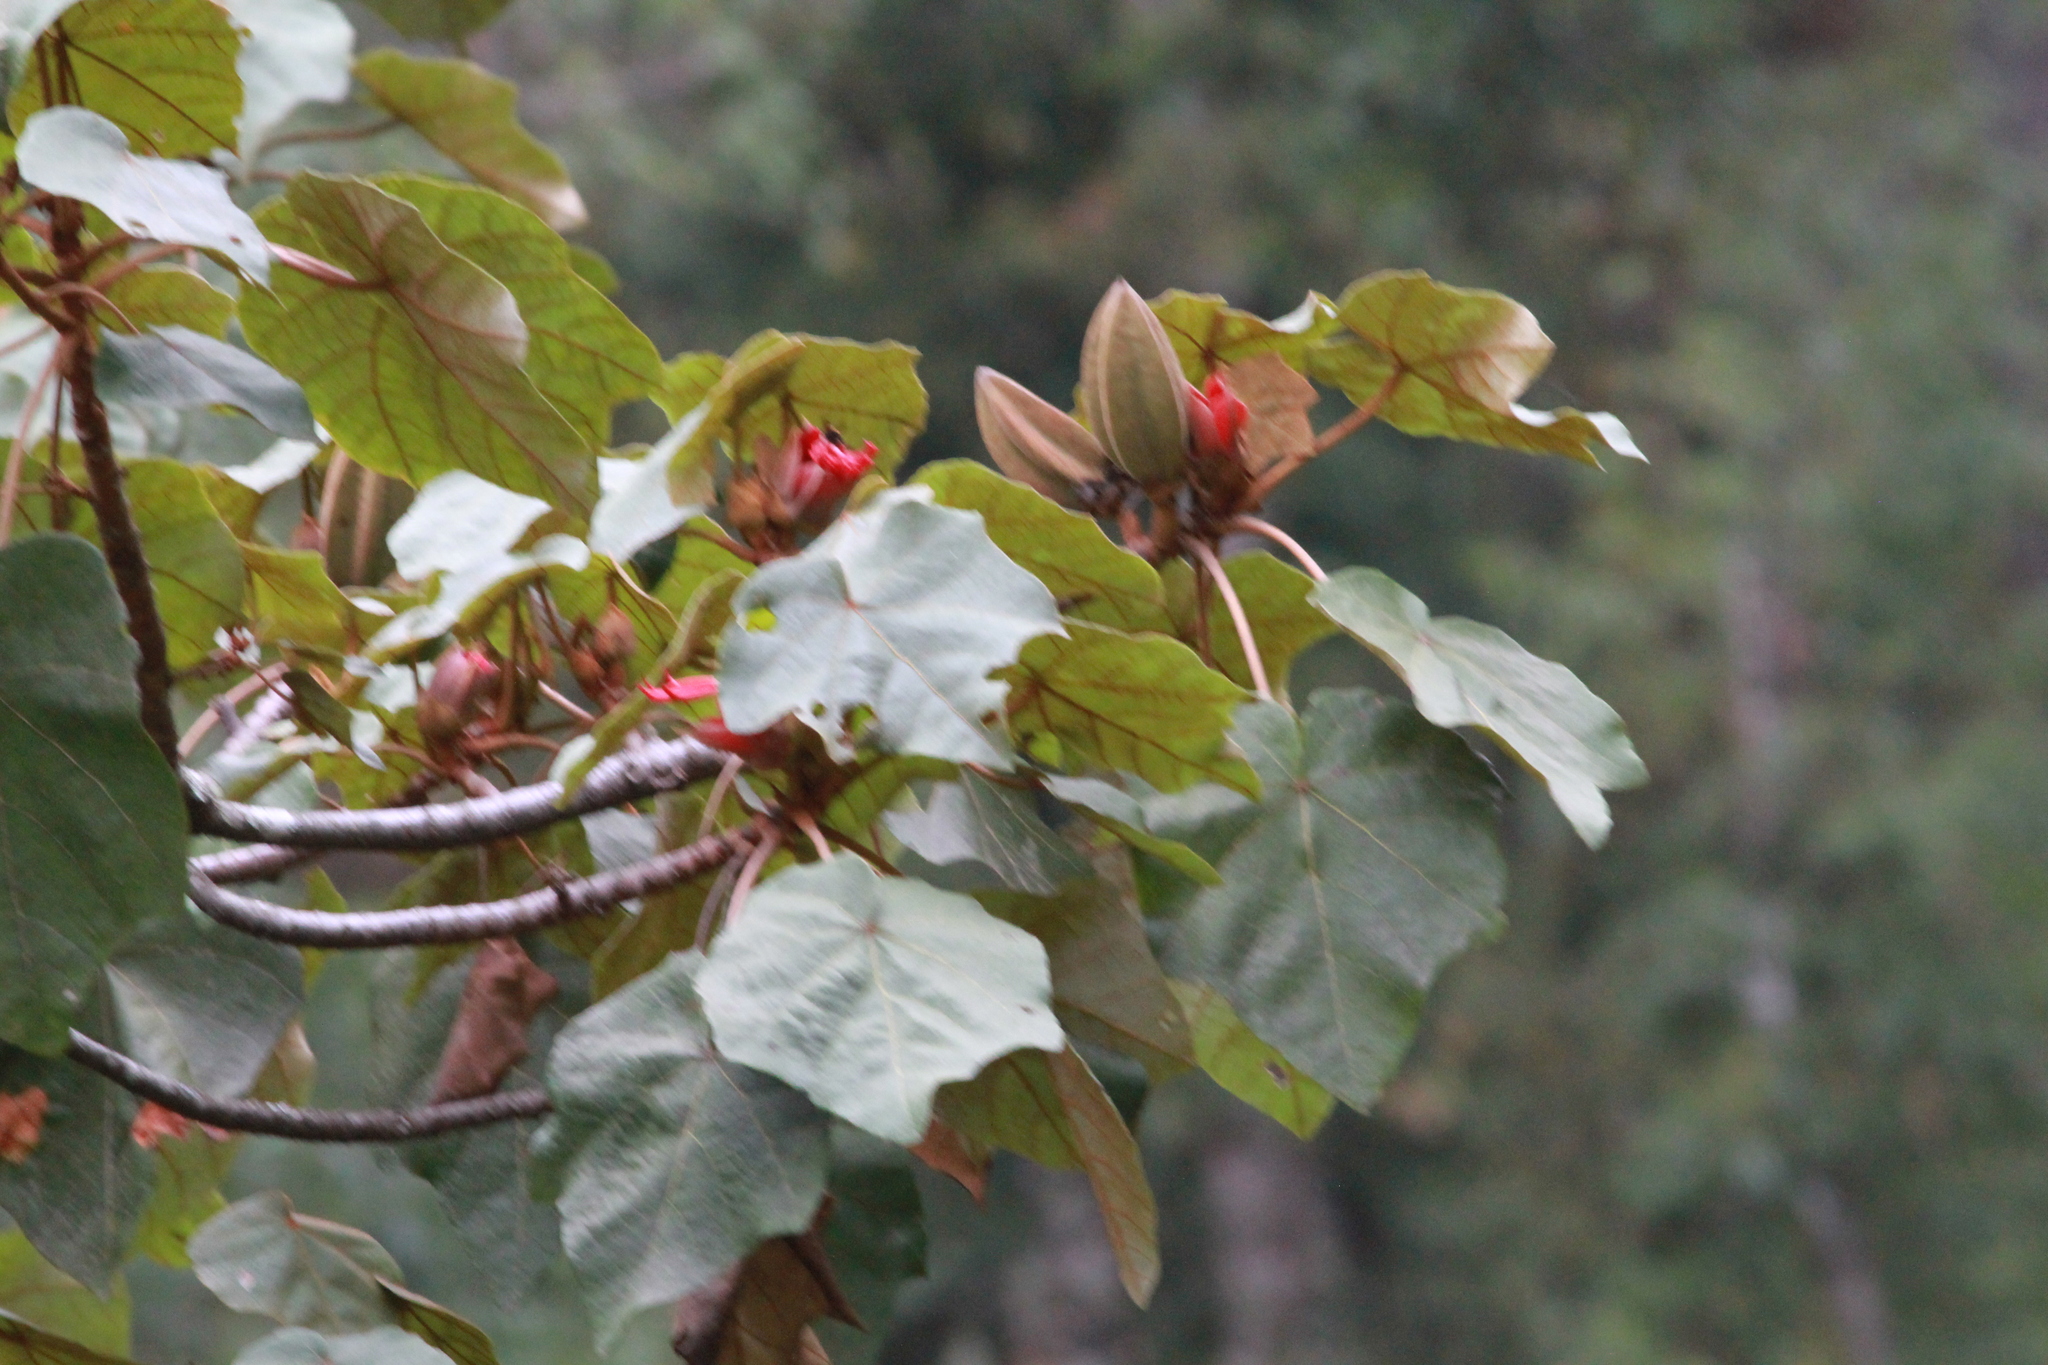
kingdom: Plantae
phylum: Tracheophyta
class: Magnoliopsida
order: Malvales
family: Malvaceae
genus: Chiranthodendron
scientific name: Chiranthodendron pentadactylon
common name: Mexican-hat-plant
